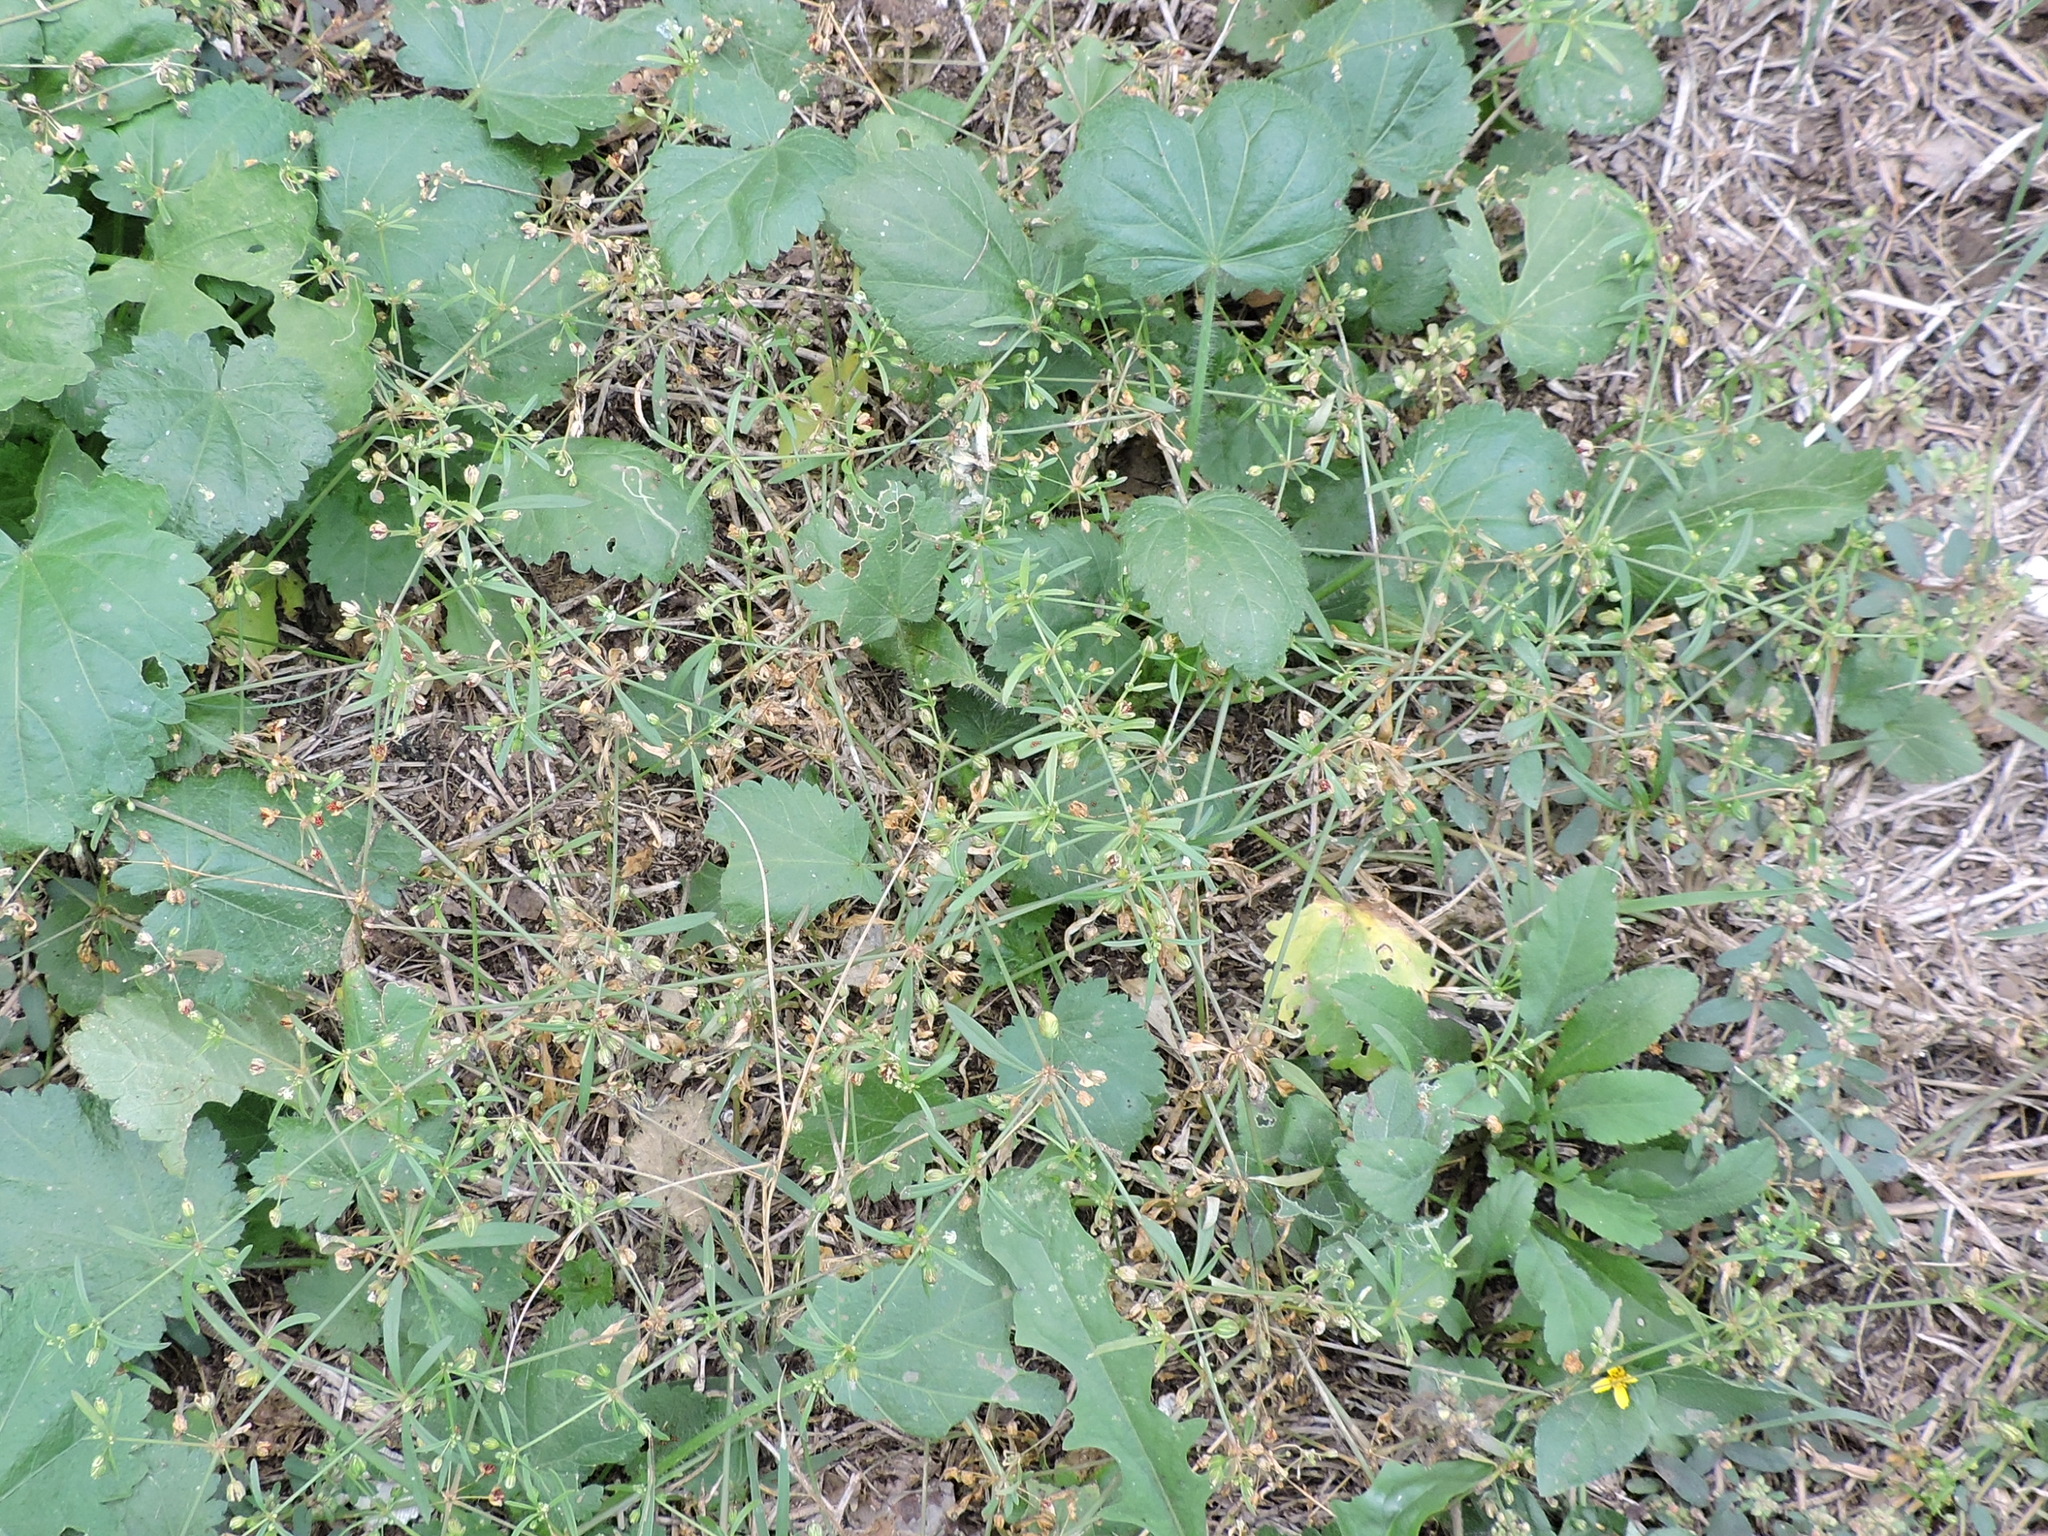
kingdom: Plantae
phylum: Tracheophyta
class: Magnoliopsida
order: Caryophyllales
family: Molluginaceae
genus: Mollugo
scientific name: Mollugo verticillata
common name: Green carpetweed
